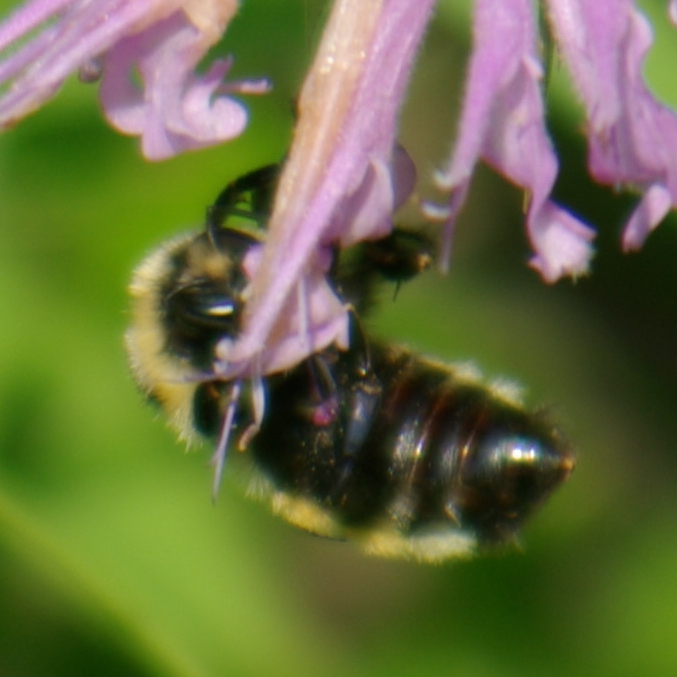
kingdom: Animalia
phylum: Arthropoda
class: Insecta
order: Hymenoptera
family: Apidae
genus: Bombus
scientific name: Bombus ternarius
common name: Tri-colored bumble bee
